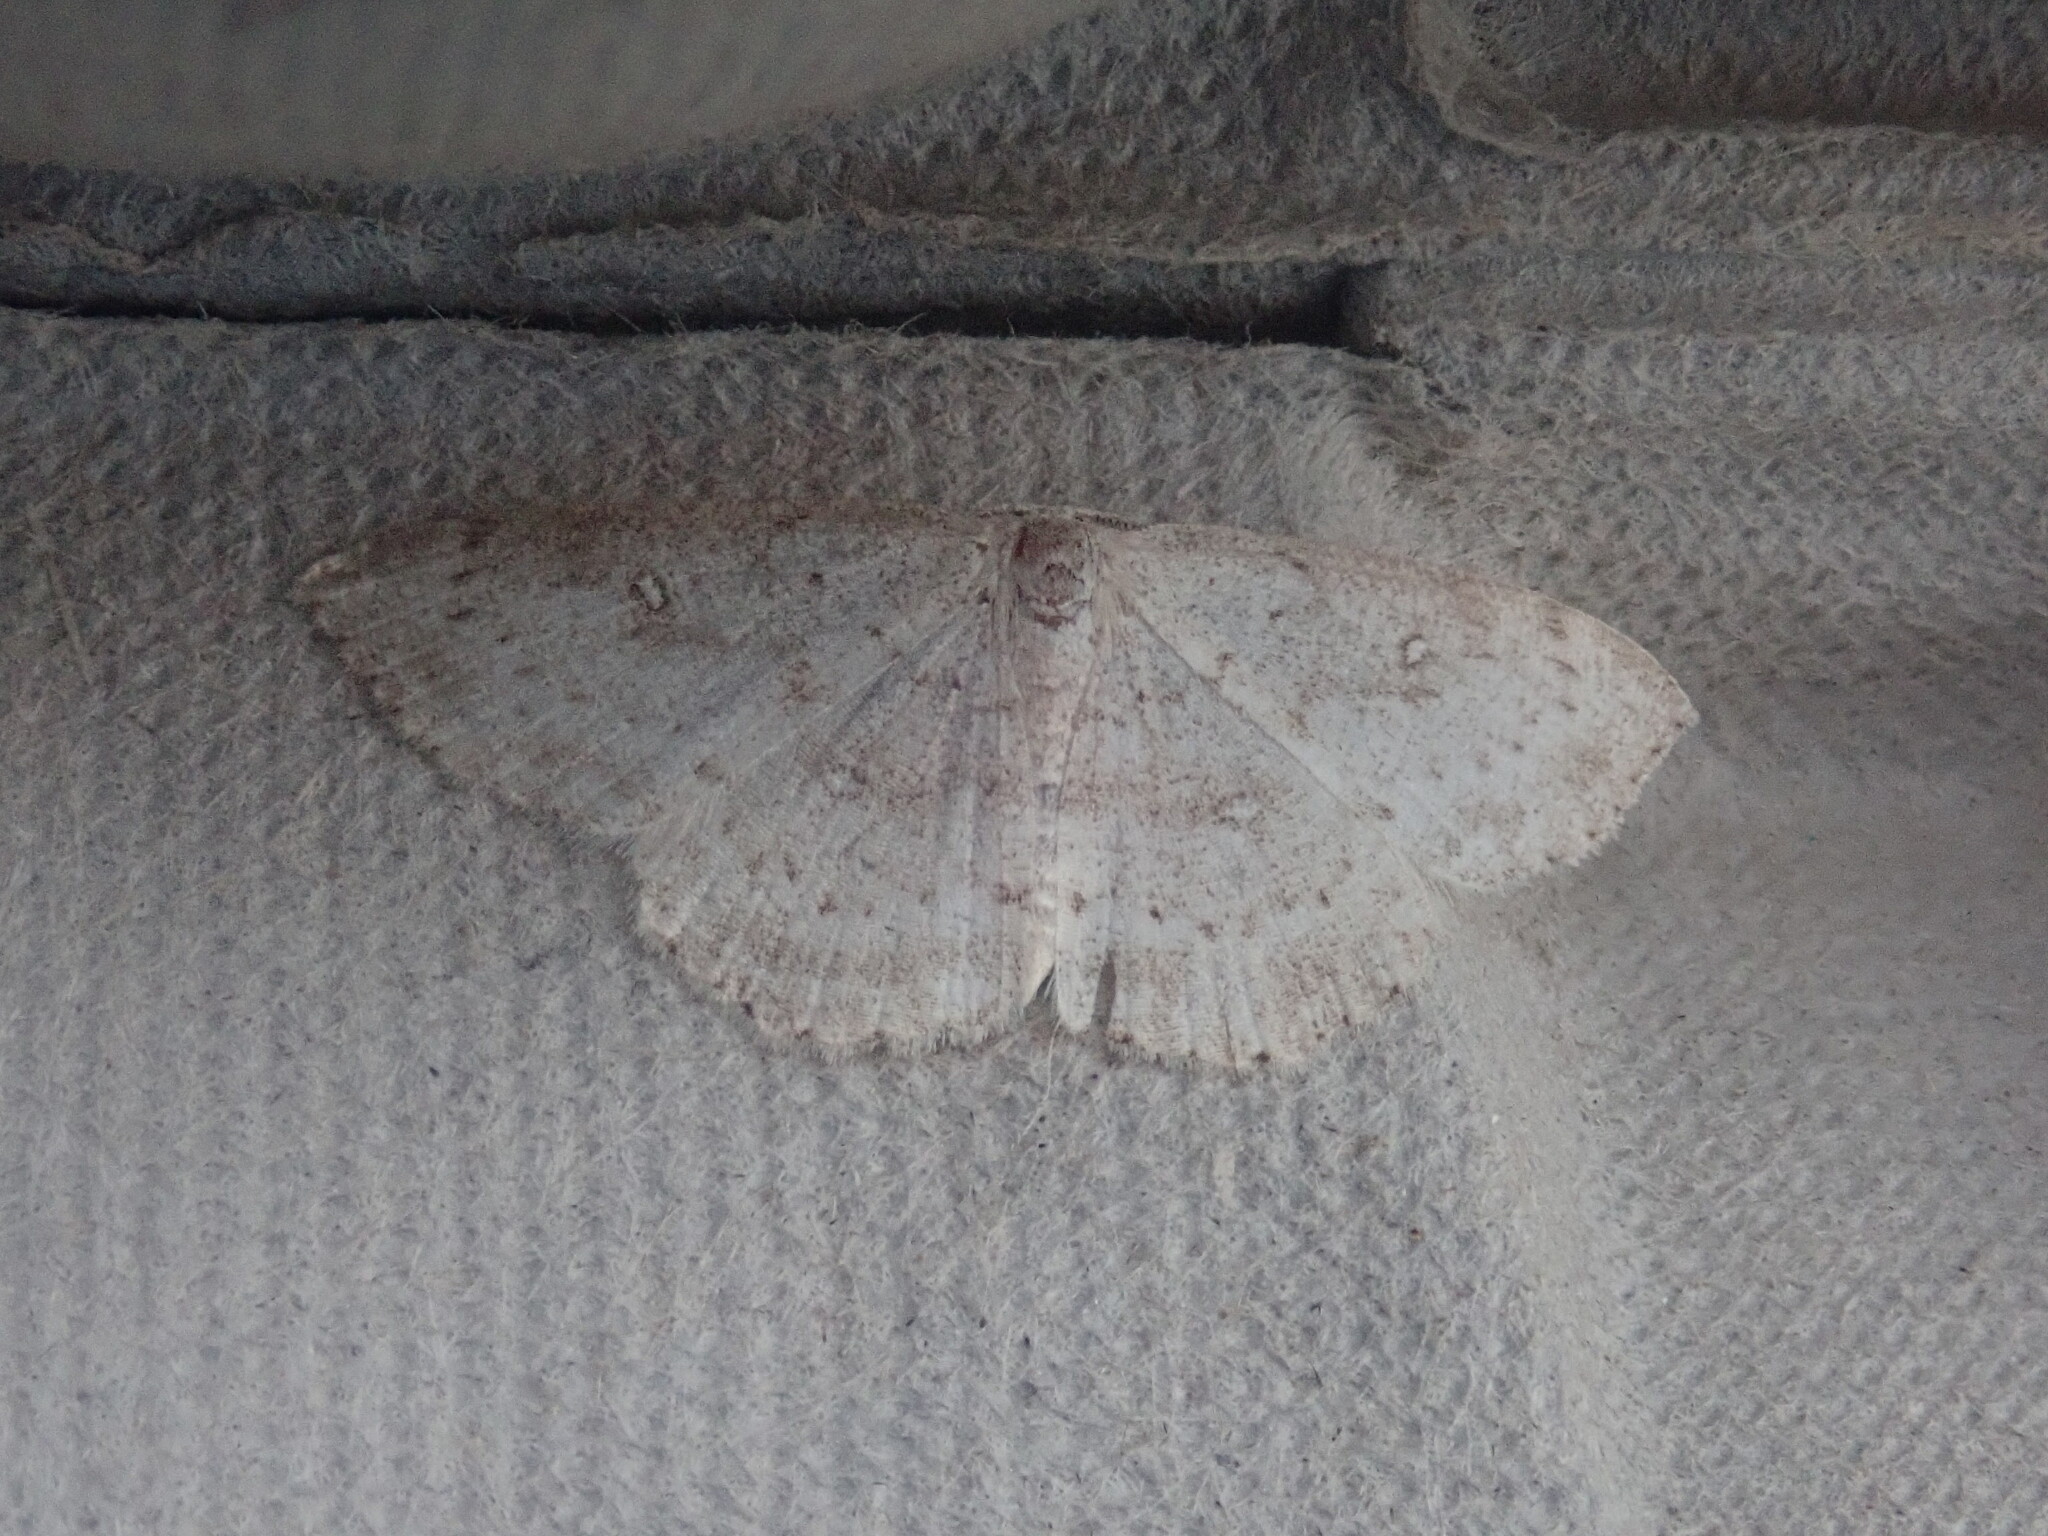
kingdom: Animalia
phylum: Arthropoda
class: Insecta
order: Lepidoptera
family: Geometridae
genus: Cyclophora
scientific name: Cyclophora pendulinaria
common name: Sweet fern geometer
